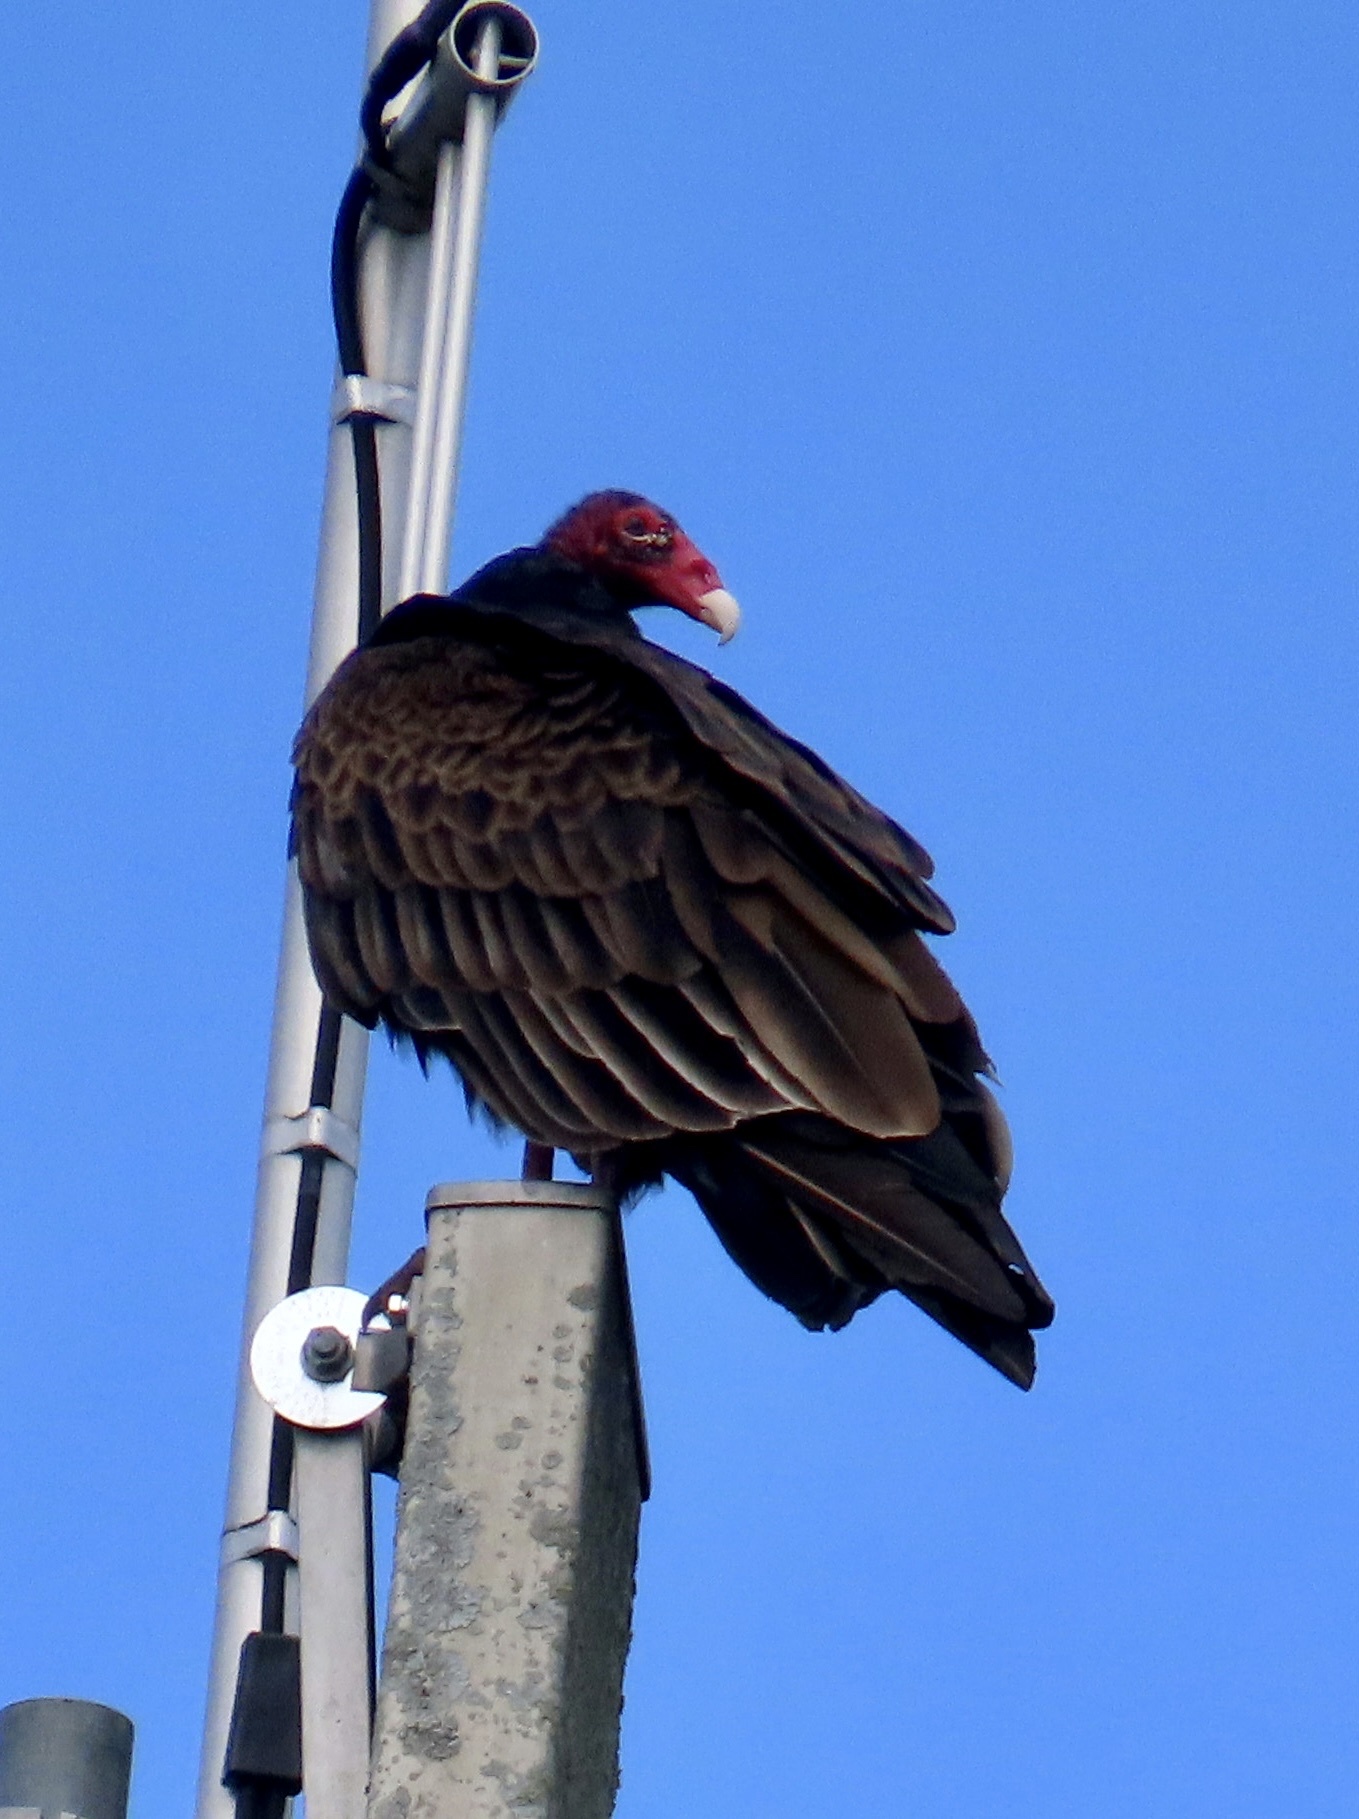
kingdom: Animalia
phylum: Chordata
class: Aves
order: Accipitriformes
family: Cathartidae
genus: Cathartes
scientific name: Cathartes aura
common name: Turkey vulture
